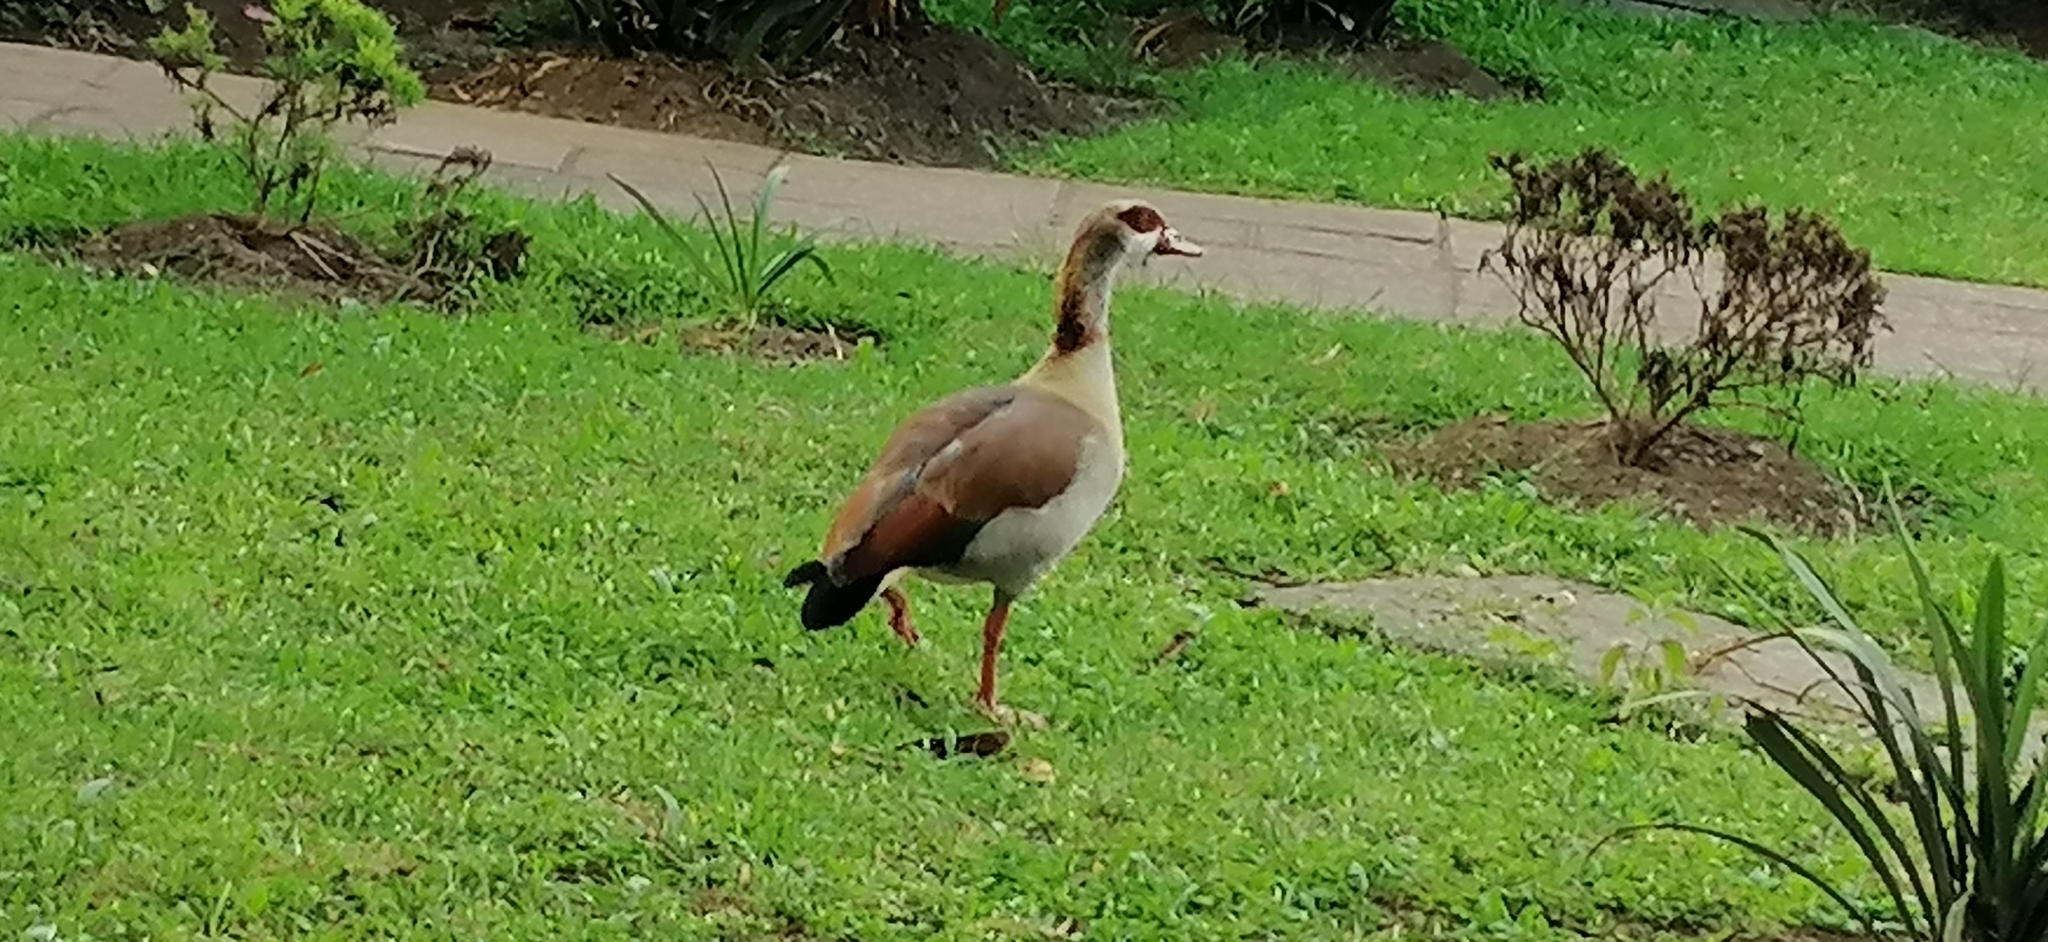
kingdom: Animalia
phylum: Chordata
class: Aves
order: Anseriformes
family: Anatidae
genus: Alopochen
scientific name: Alopochen aegyptiaca
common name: Egyptian goose
